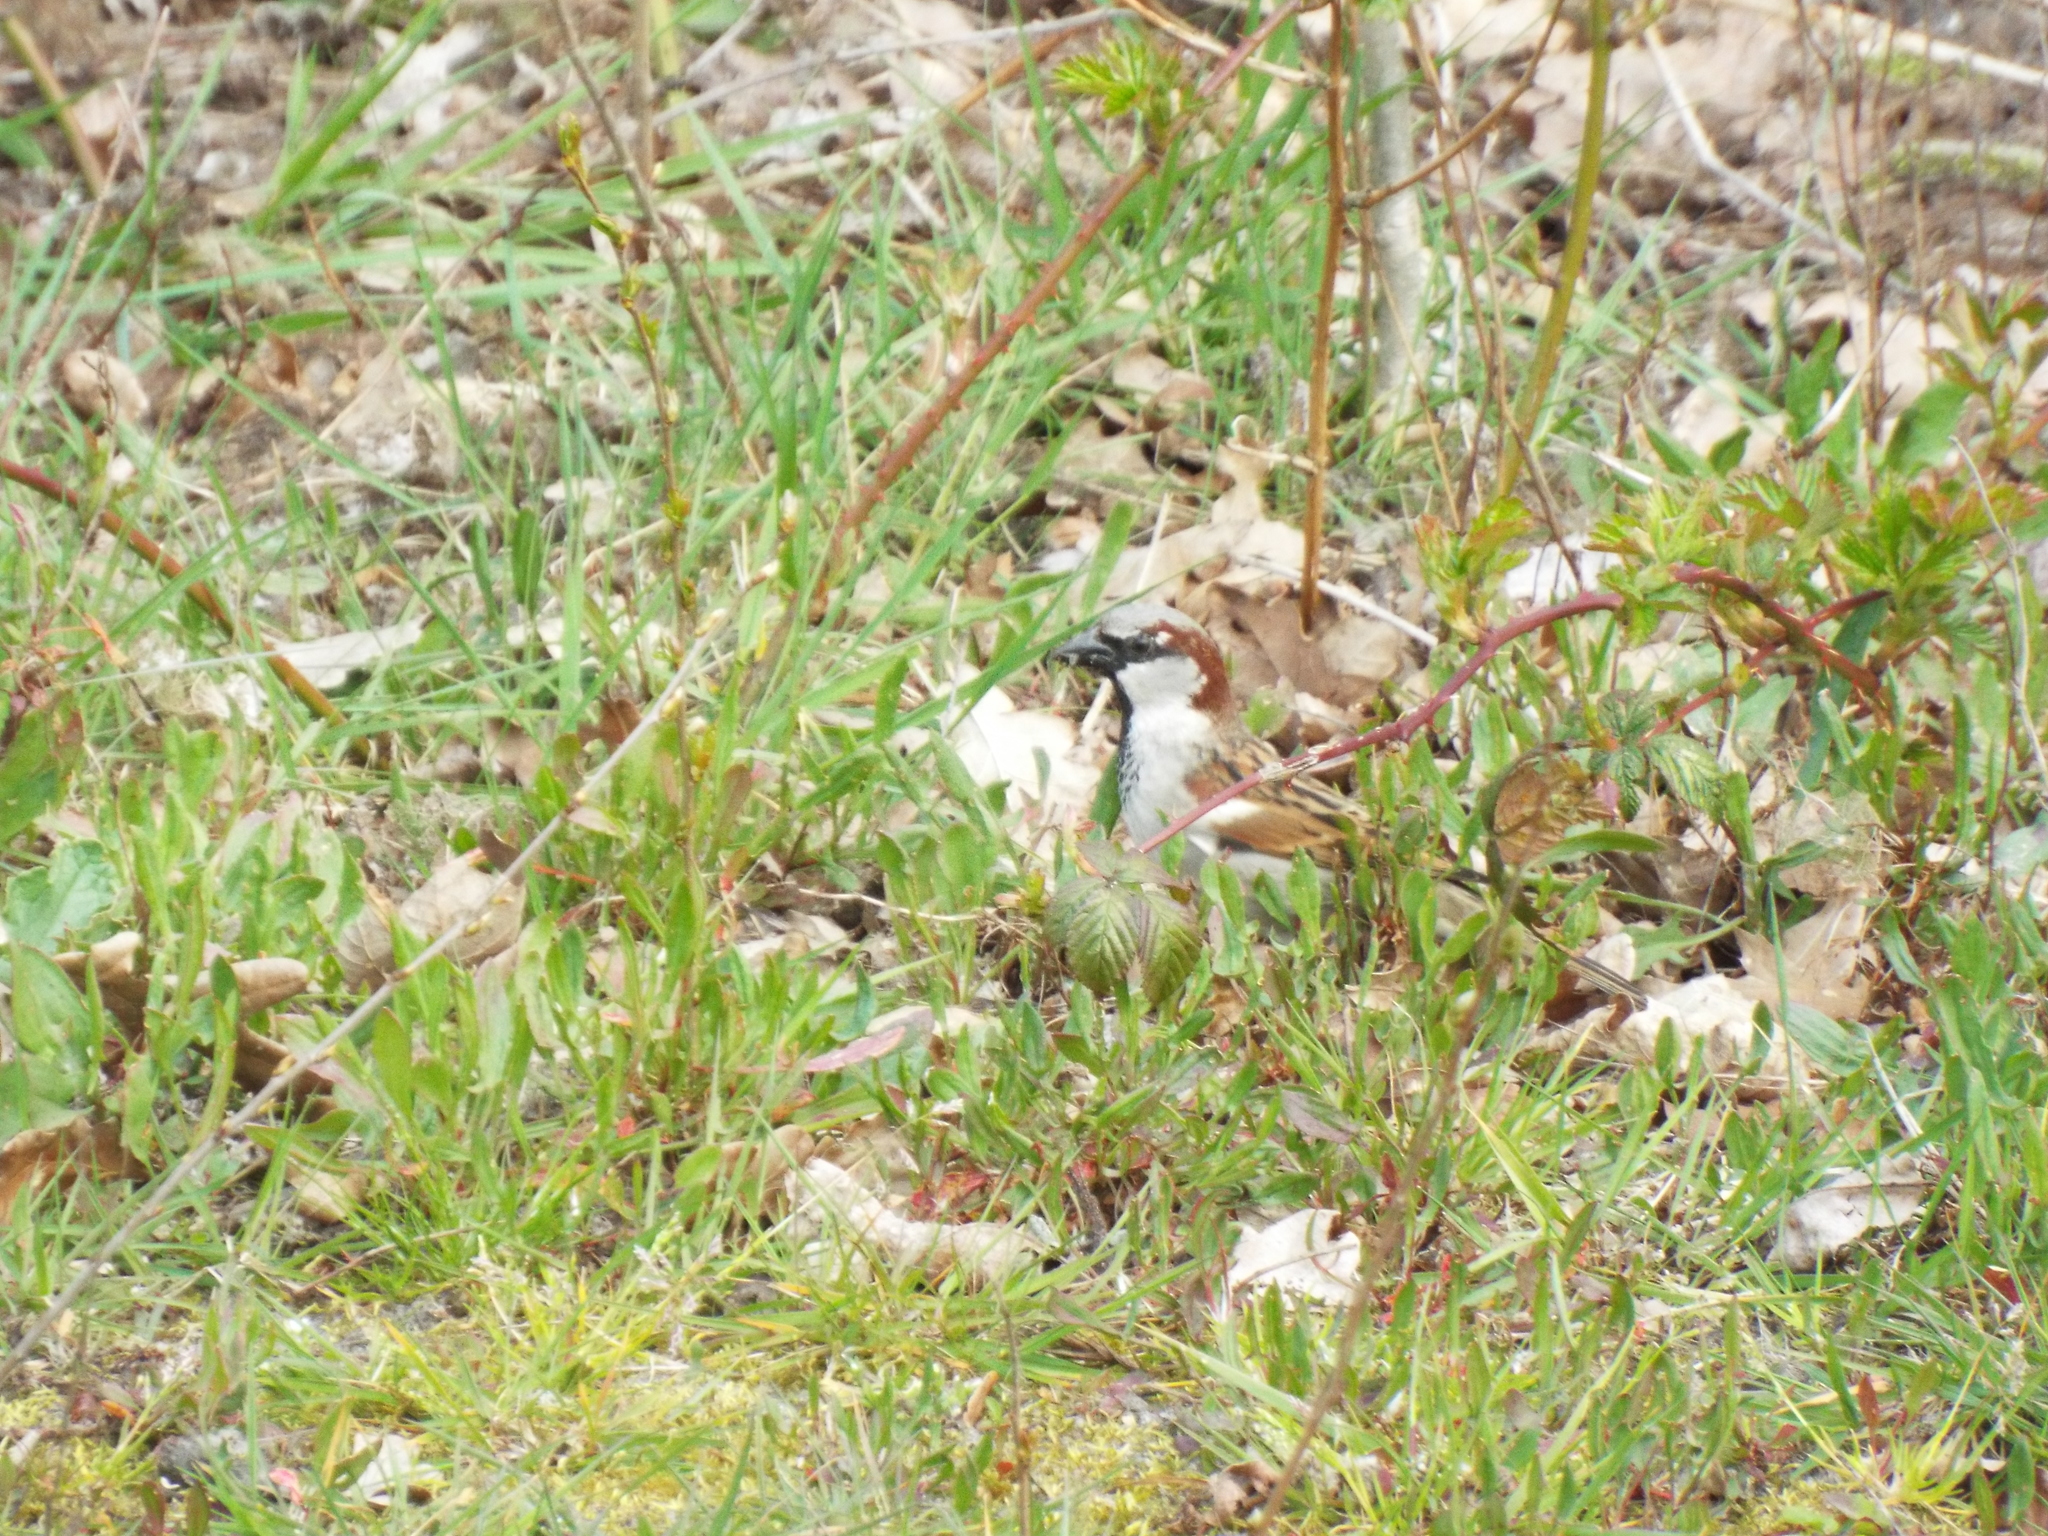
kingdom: Animalia
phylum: Chordata
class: Aves
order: Passeriformes
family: Passeridae
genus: Passer
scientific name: Passer domesticus
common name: House sparrow
